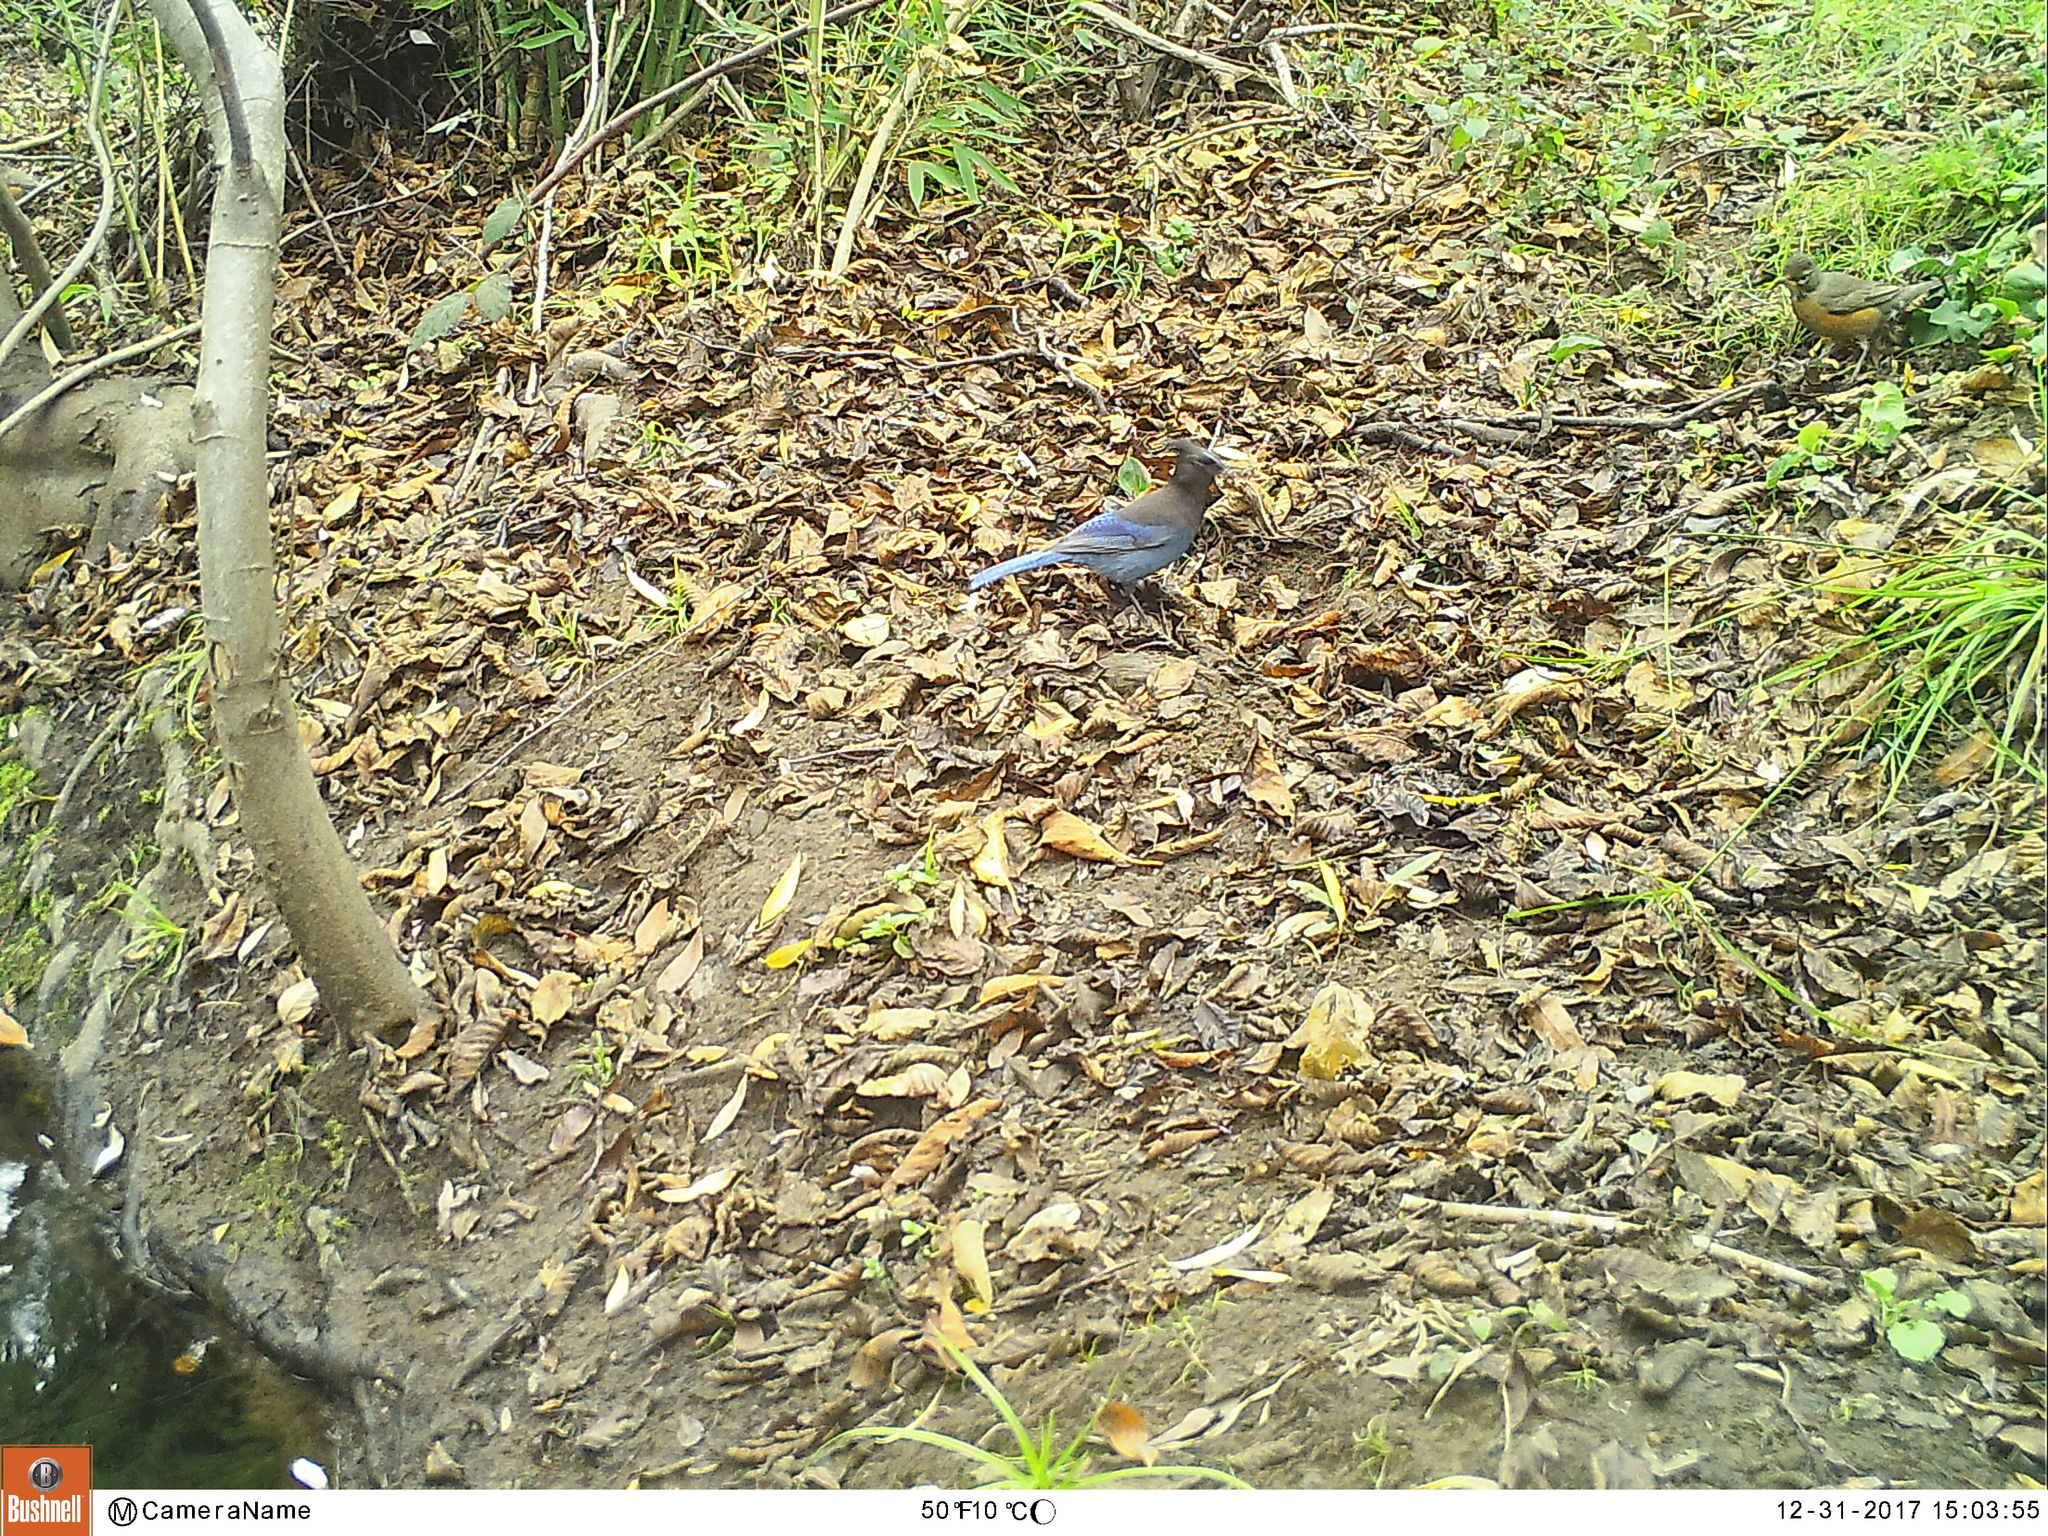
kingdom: Animalia
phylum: Chordata
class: Aves
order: Passeriformes
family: Corvidae
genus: Cyanocitta
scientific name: Cyanocitta stelleri
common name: Steller's jay
